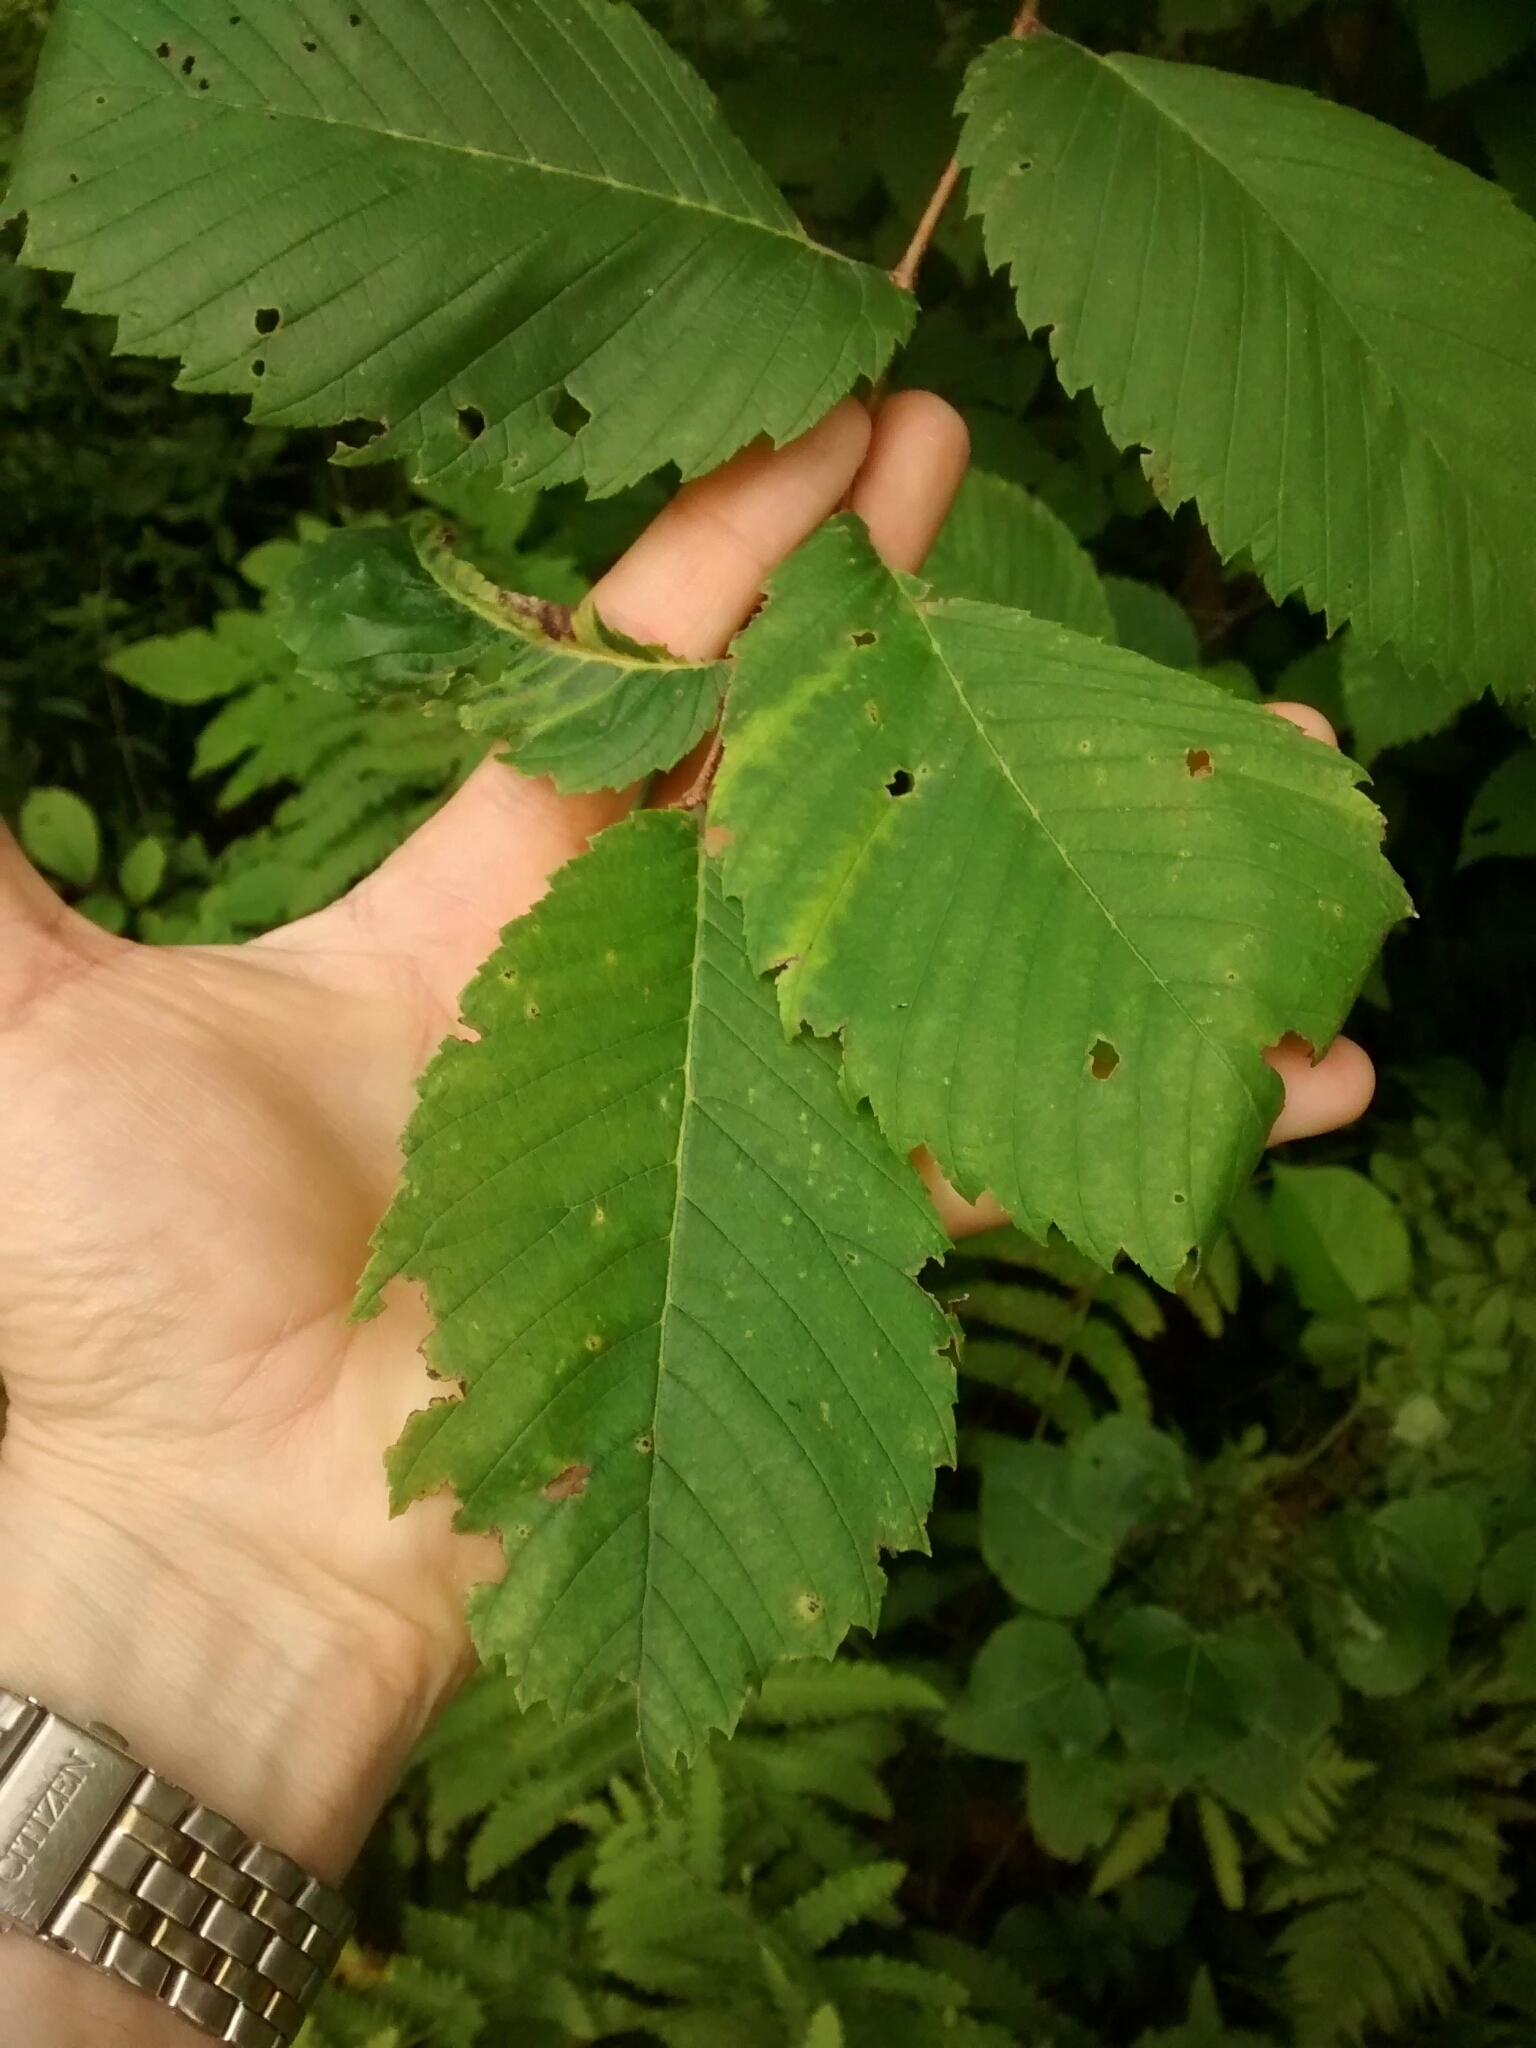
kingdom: Plantae
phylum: Tracheophyta
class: Magnoliopsida
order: Rosales
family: Ulmaceae
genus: Ulmus
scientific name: Ulmus americana
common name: American elm
